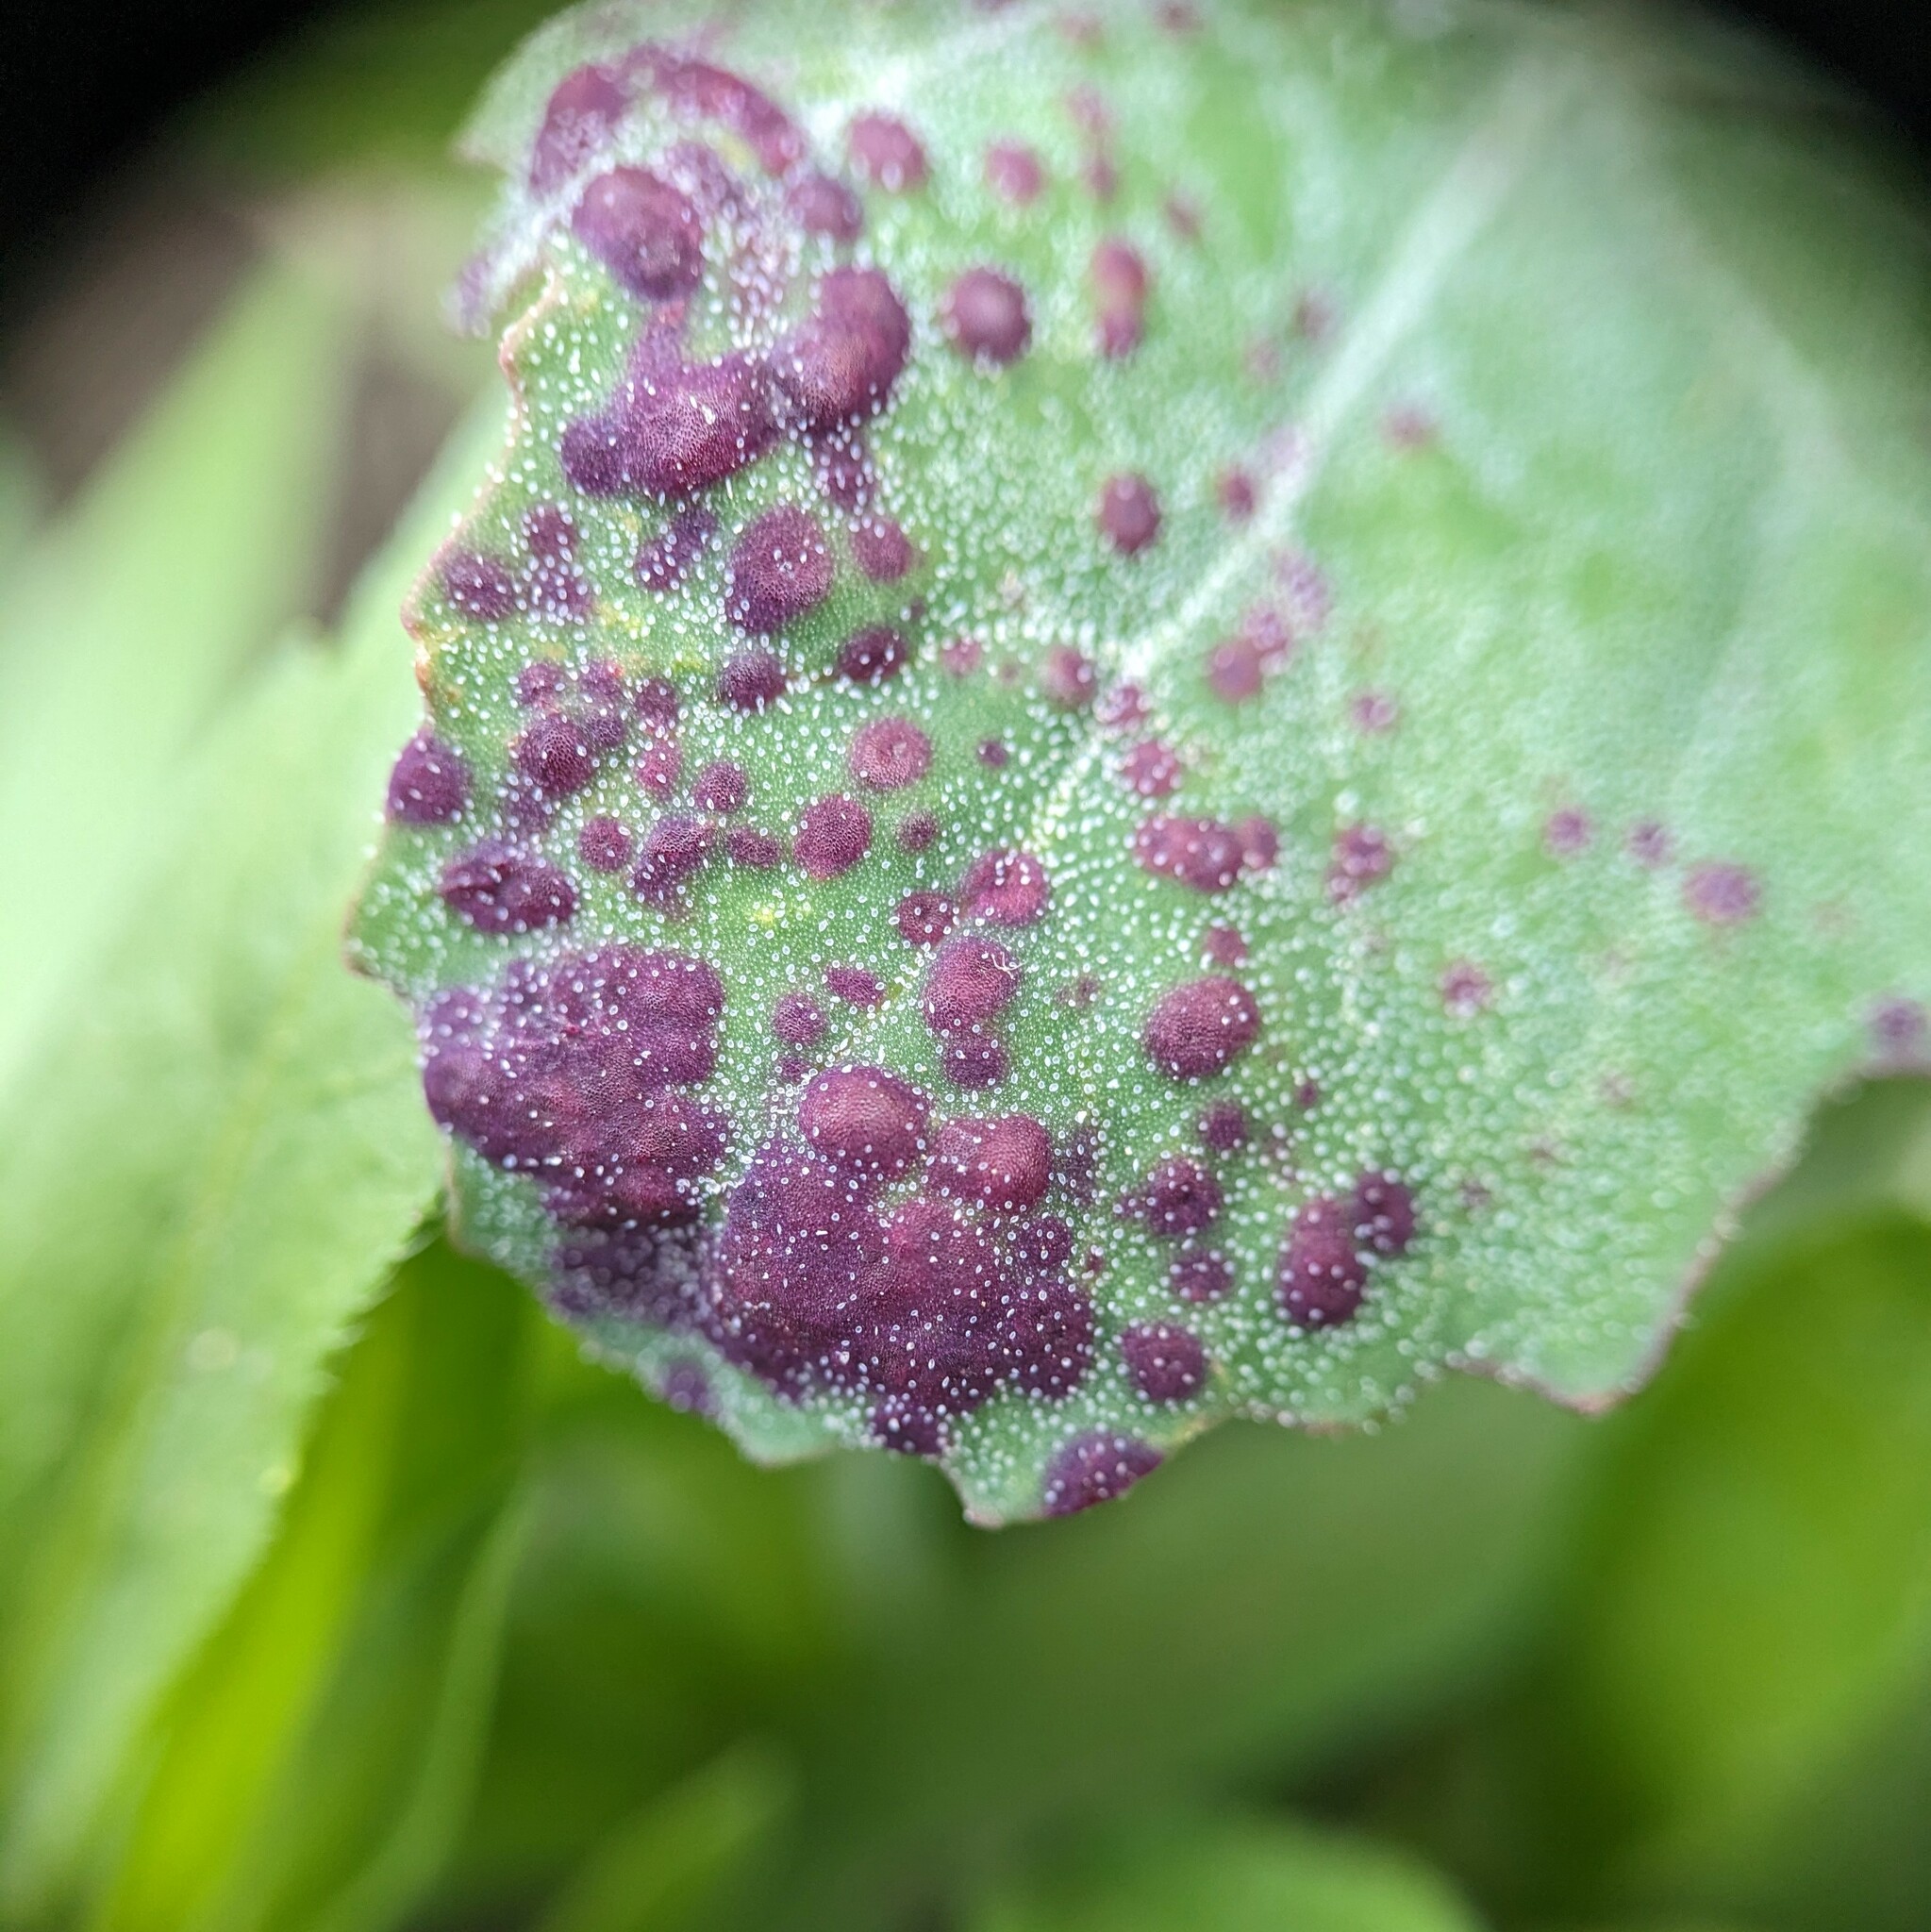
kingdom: Animalia
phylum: Arthropoda
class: Insecta
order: Hemiptera
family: Cicadellidae
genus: Norvellina
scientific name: Norvellina chenopodii
